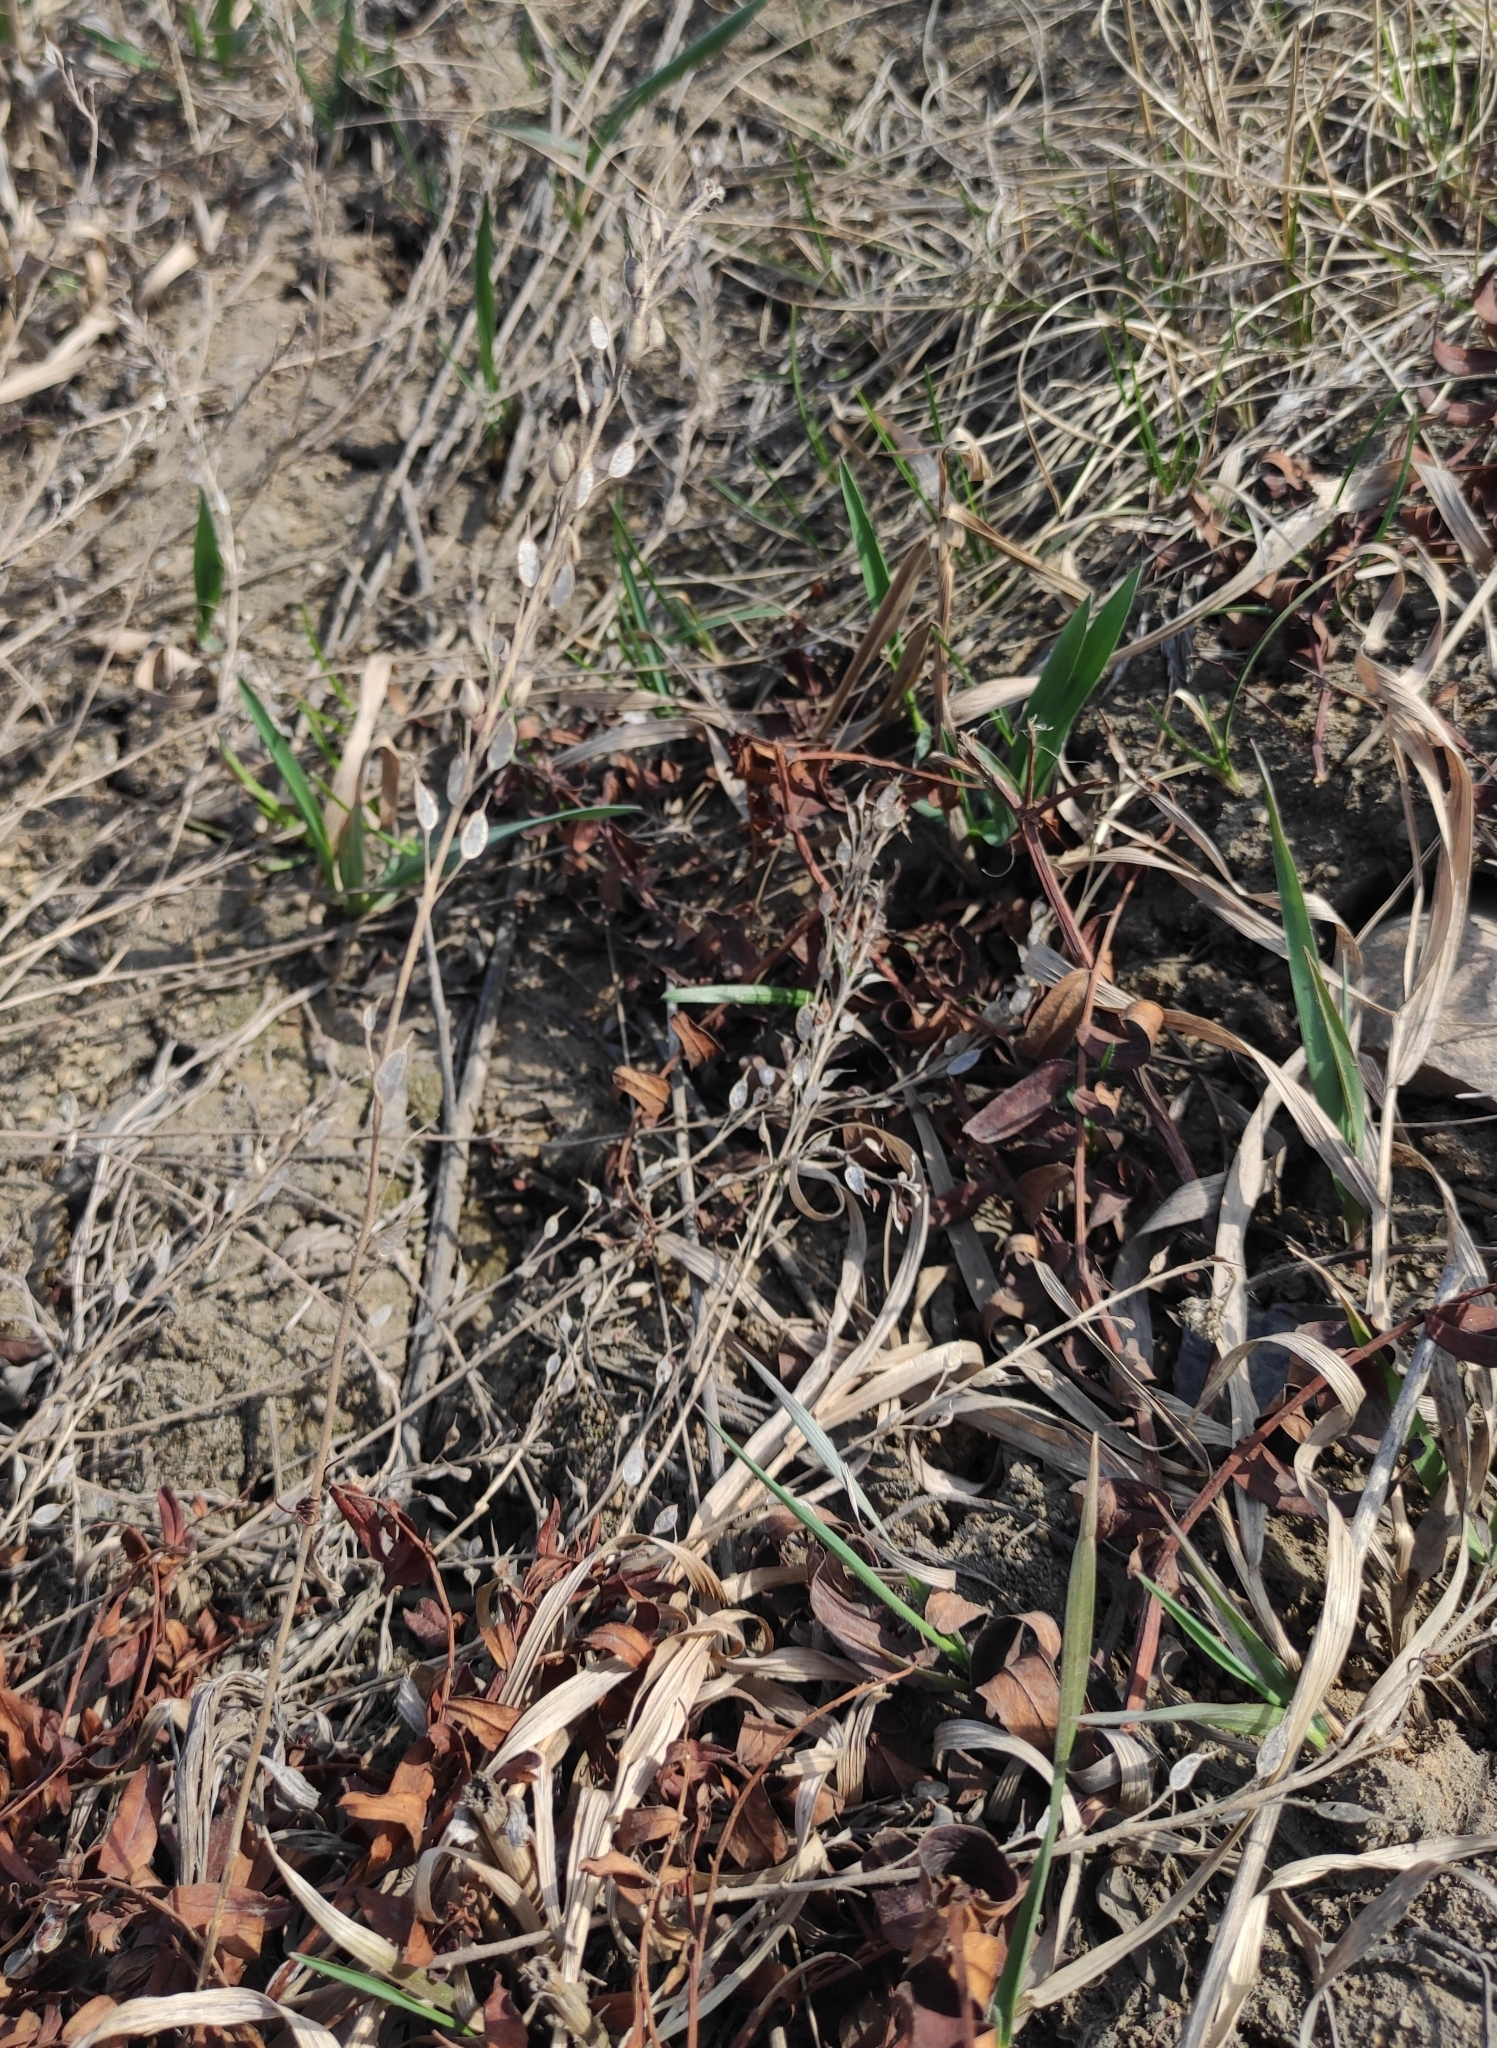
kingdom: Plantae
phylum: Tracheophyta
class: Magnoliopsida
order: Brassicales
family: Brassicaceae
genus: Berteroa
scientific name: Berteroa incana
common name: Hoary alison
